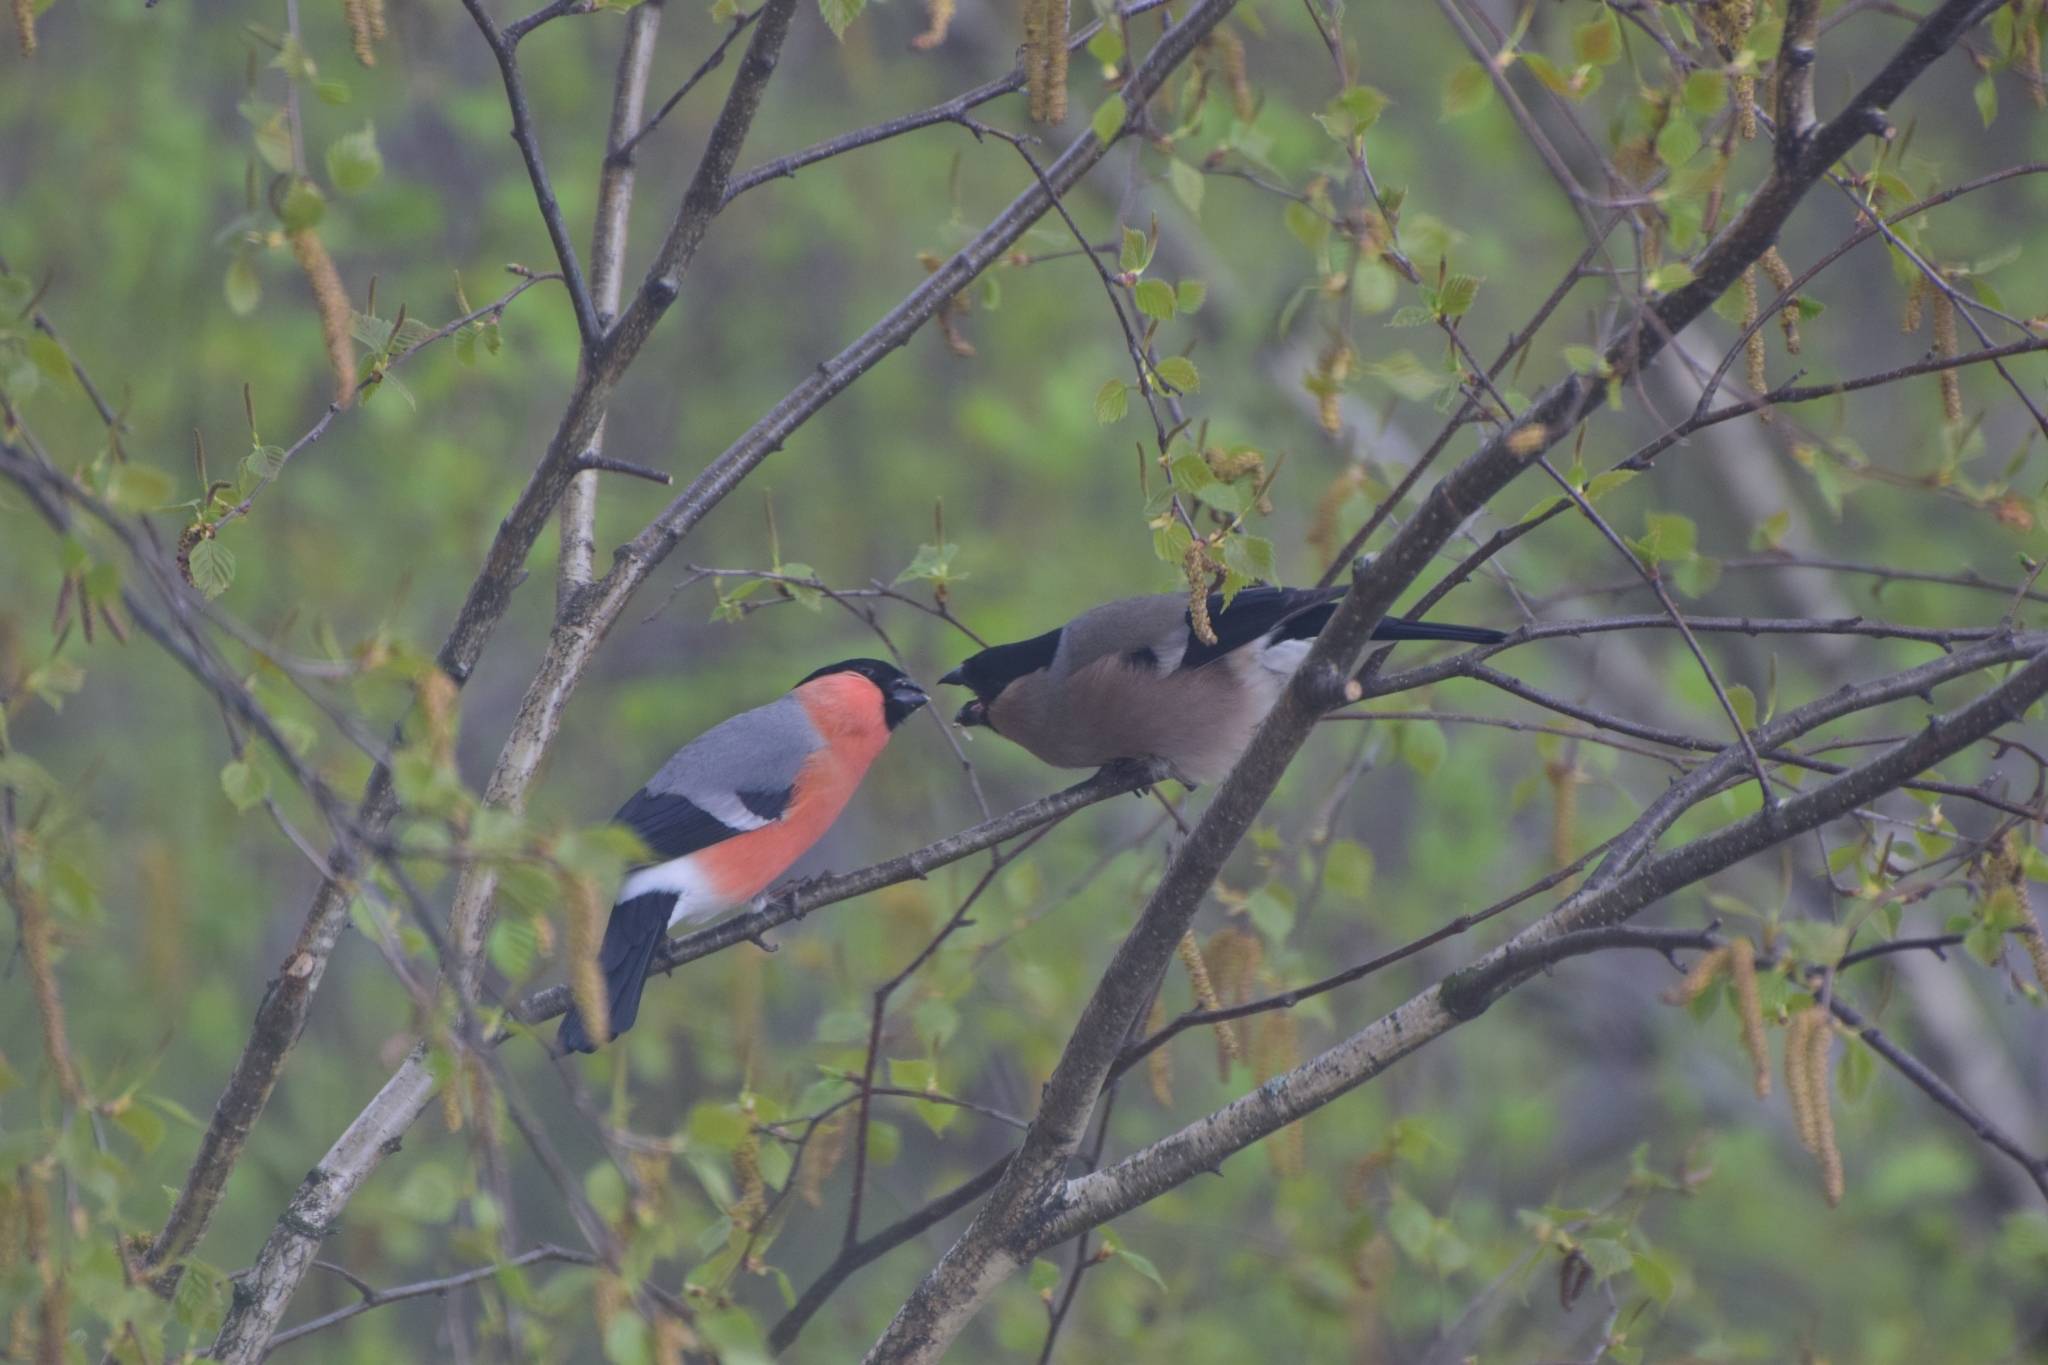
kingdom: Animalia
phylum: Chordata
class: Aves
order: Passeriformes
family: Fringillidae
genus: Pyrrhula
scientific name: Pyrrhula pyrrhula
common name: Eurasian bullfinch
